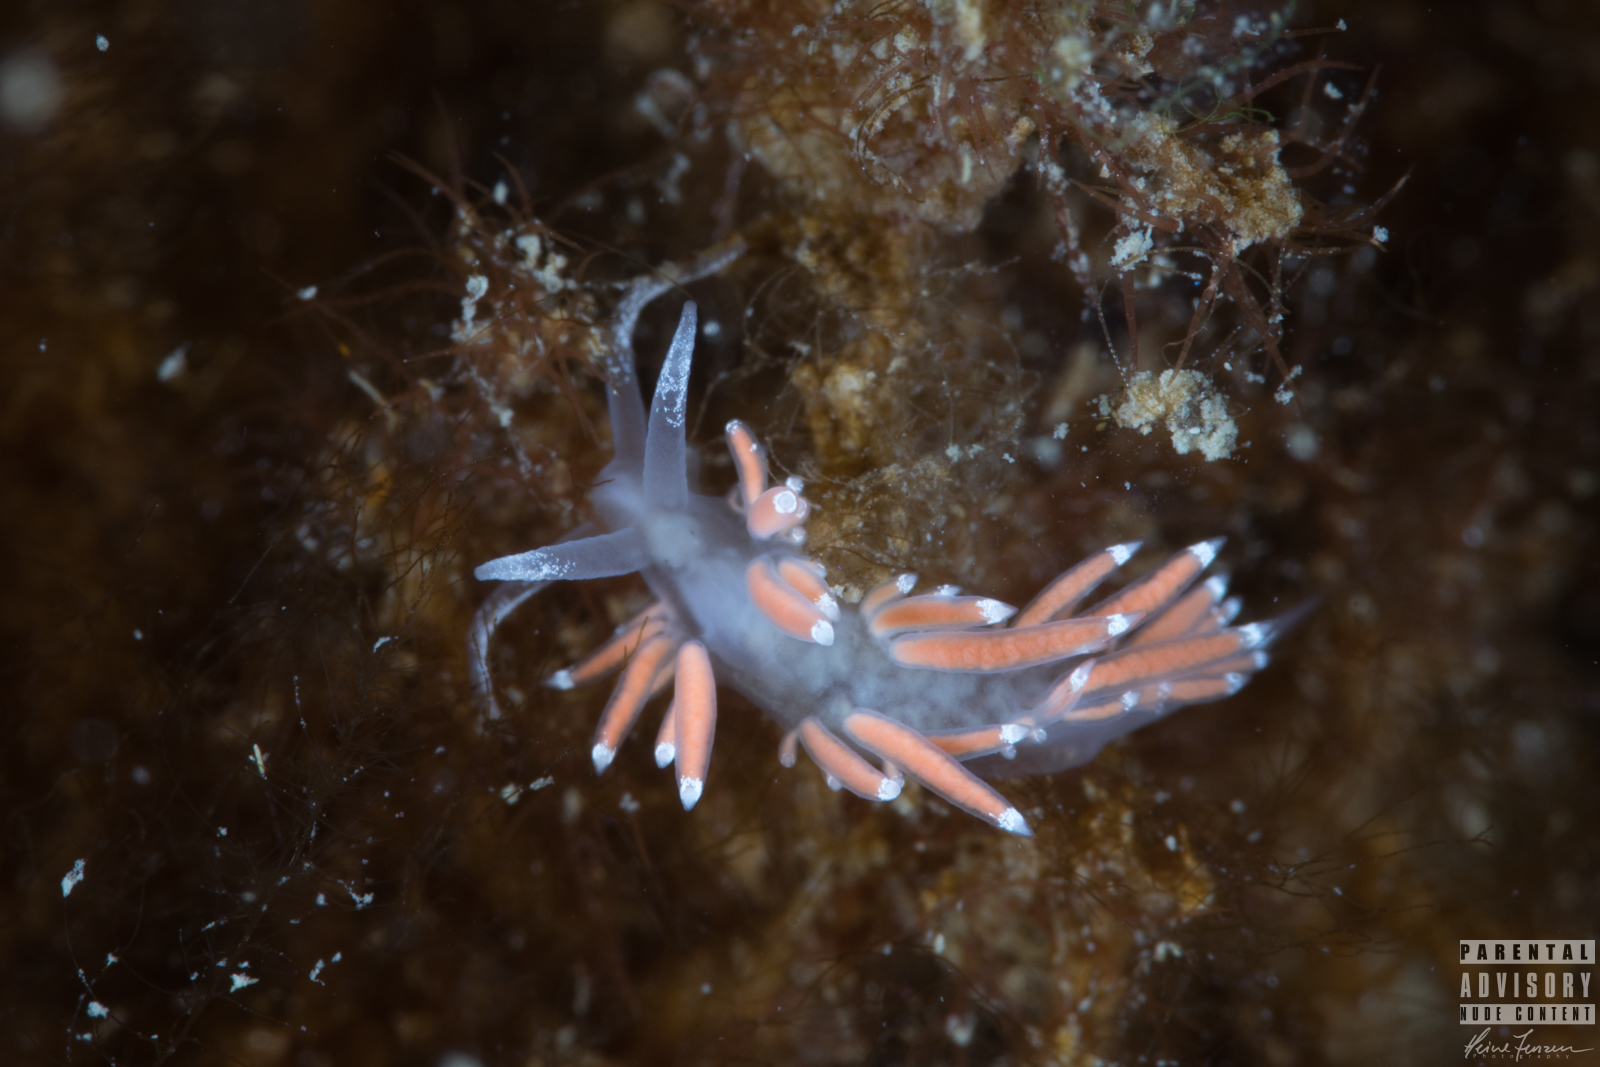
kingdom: Animalia
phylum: Mollusca
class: Gastropoda
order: Nudibranchia
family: Coryphellidae
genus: Coryphella
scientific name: Coryphella gracilis
